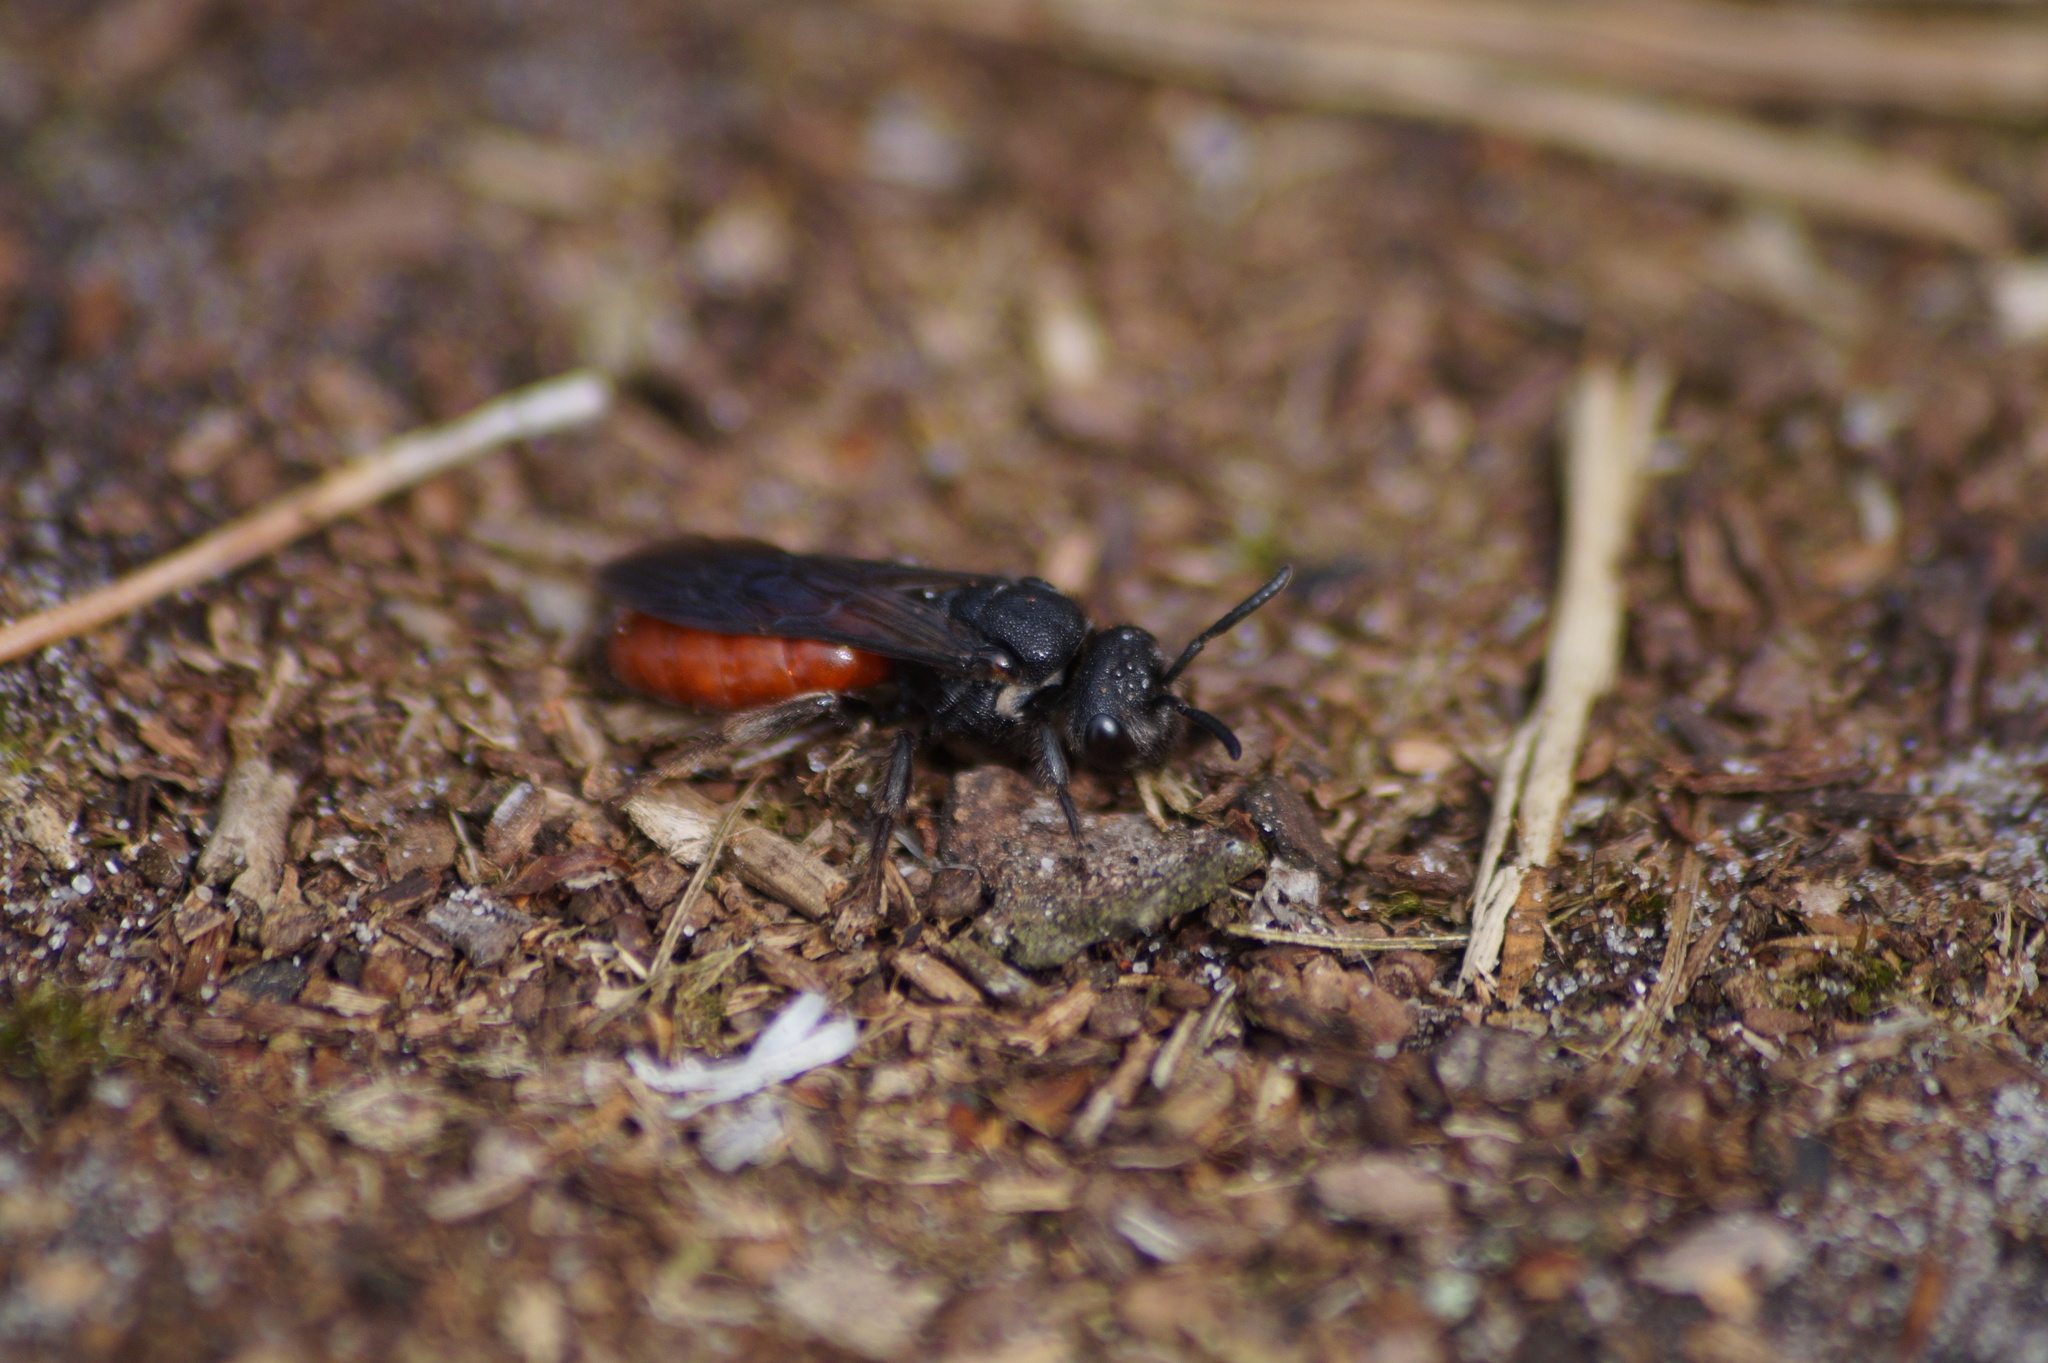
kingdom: Animalia
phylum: Arthropoda
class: Insecta
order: Hymenoptera
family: Halictidae
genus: Sphecodes
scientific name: Sphecodes albilabris
